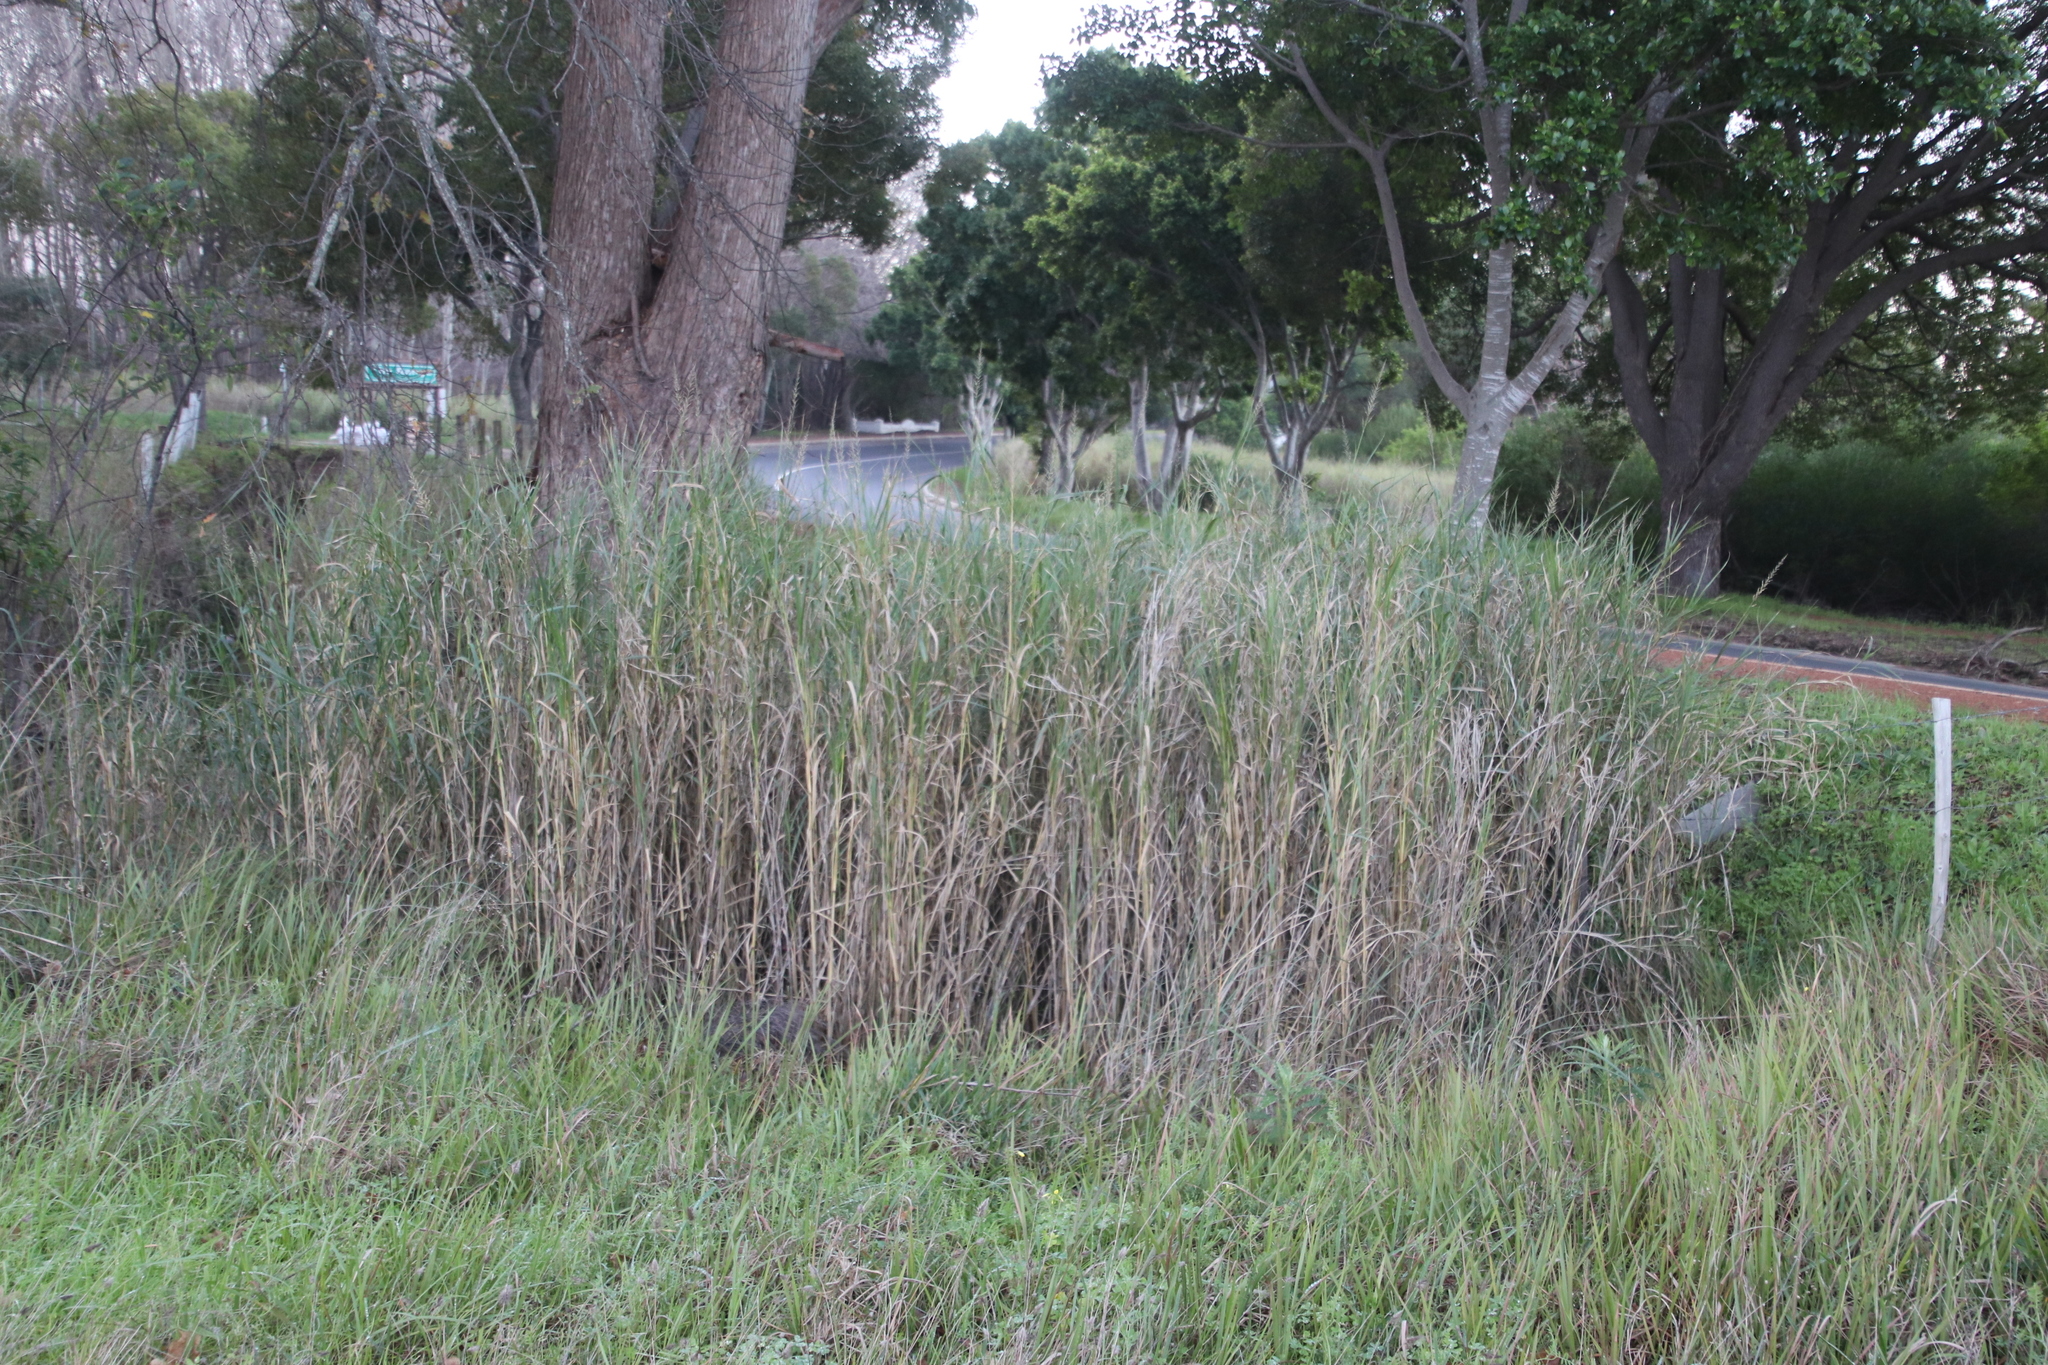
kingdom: Plantae
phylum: Tracheophyta
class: Liliopsida
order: Poales
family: Poaceae
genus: Echinochloa
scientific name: Echinochloa pyramidalis
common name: Antelope grass
